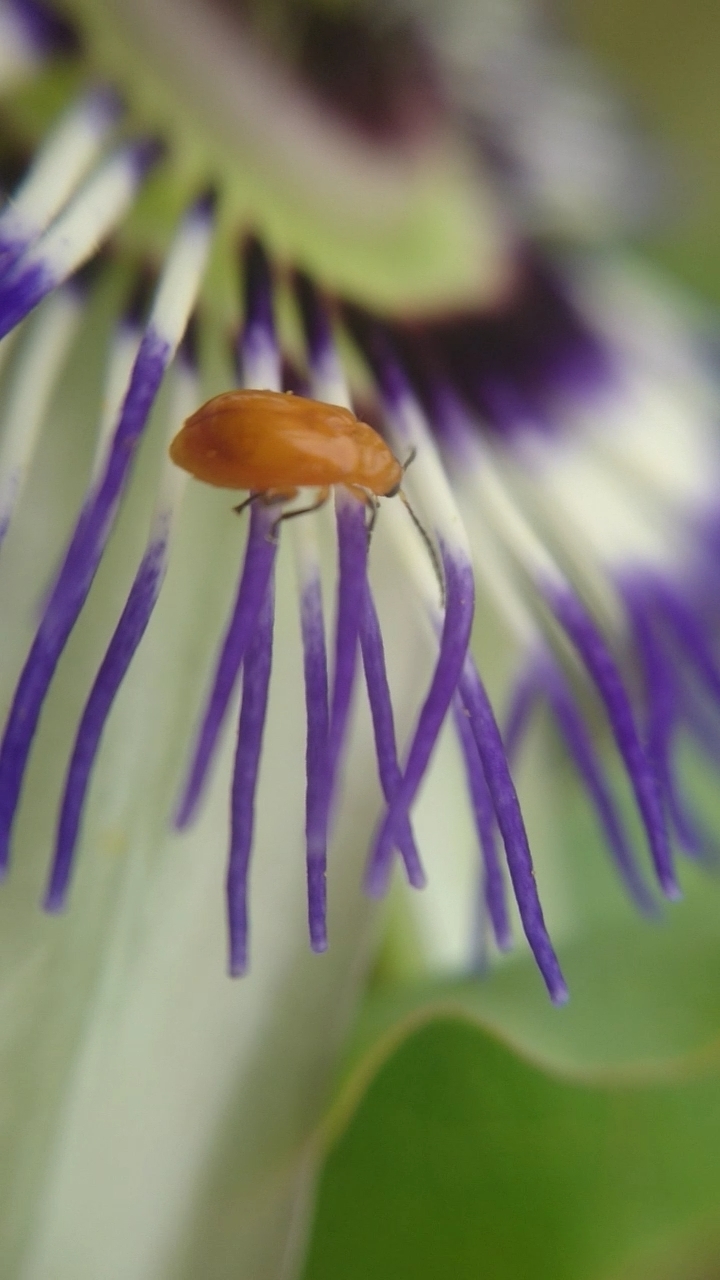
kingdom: Animalia
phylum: Arthropoda
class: Insecta
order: Coleoptera
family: Chrysomelidae
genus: Parchicola
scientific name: Parchicola
